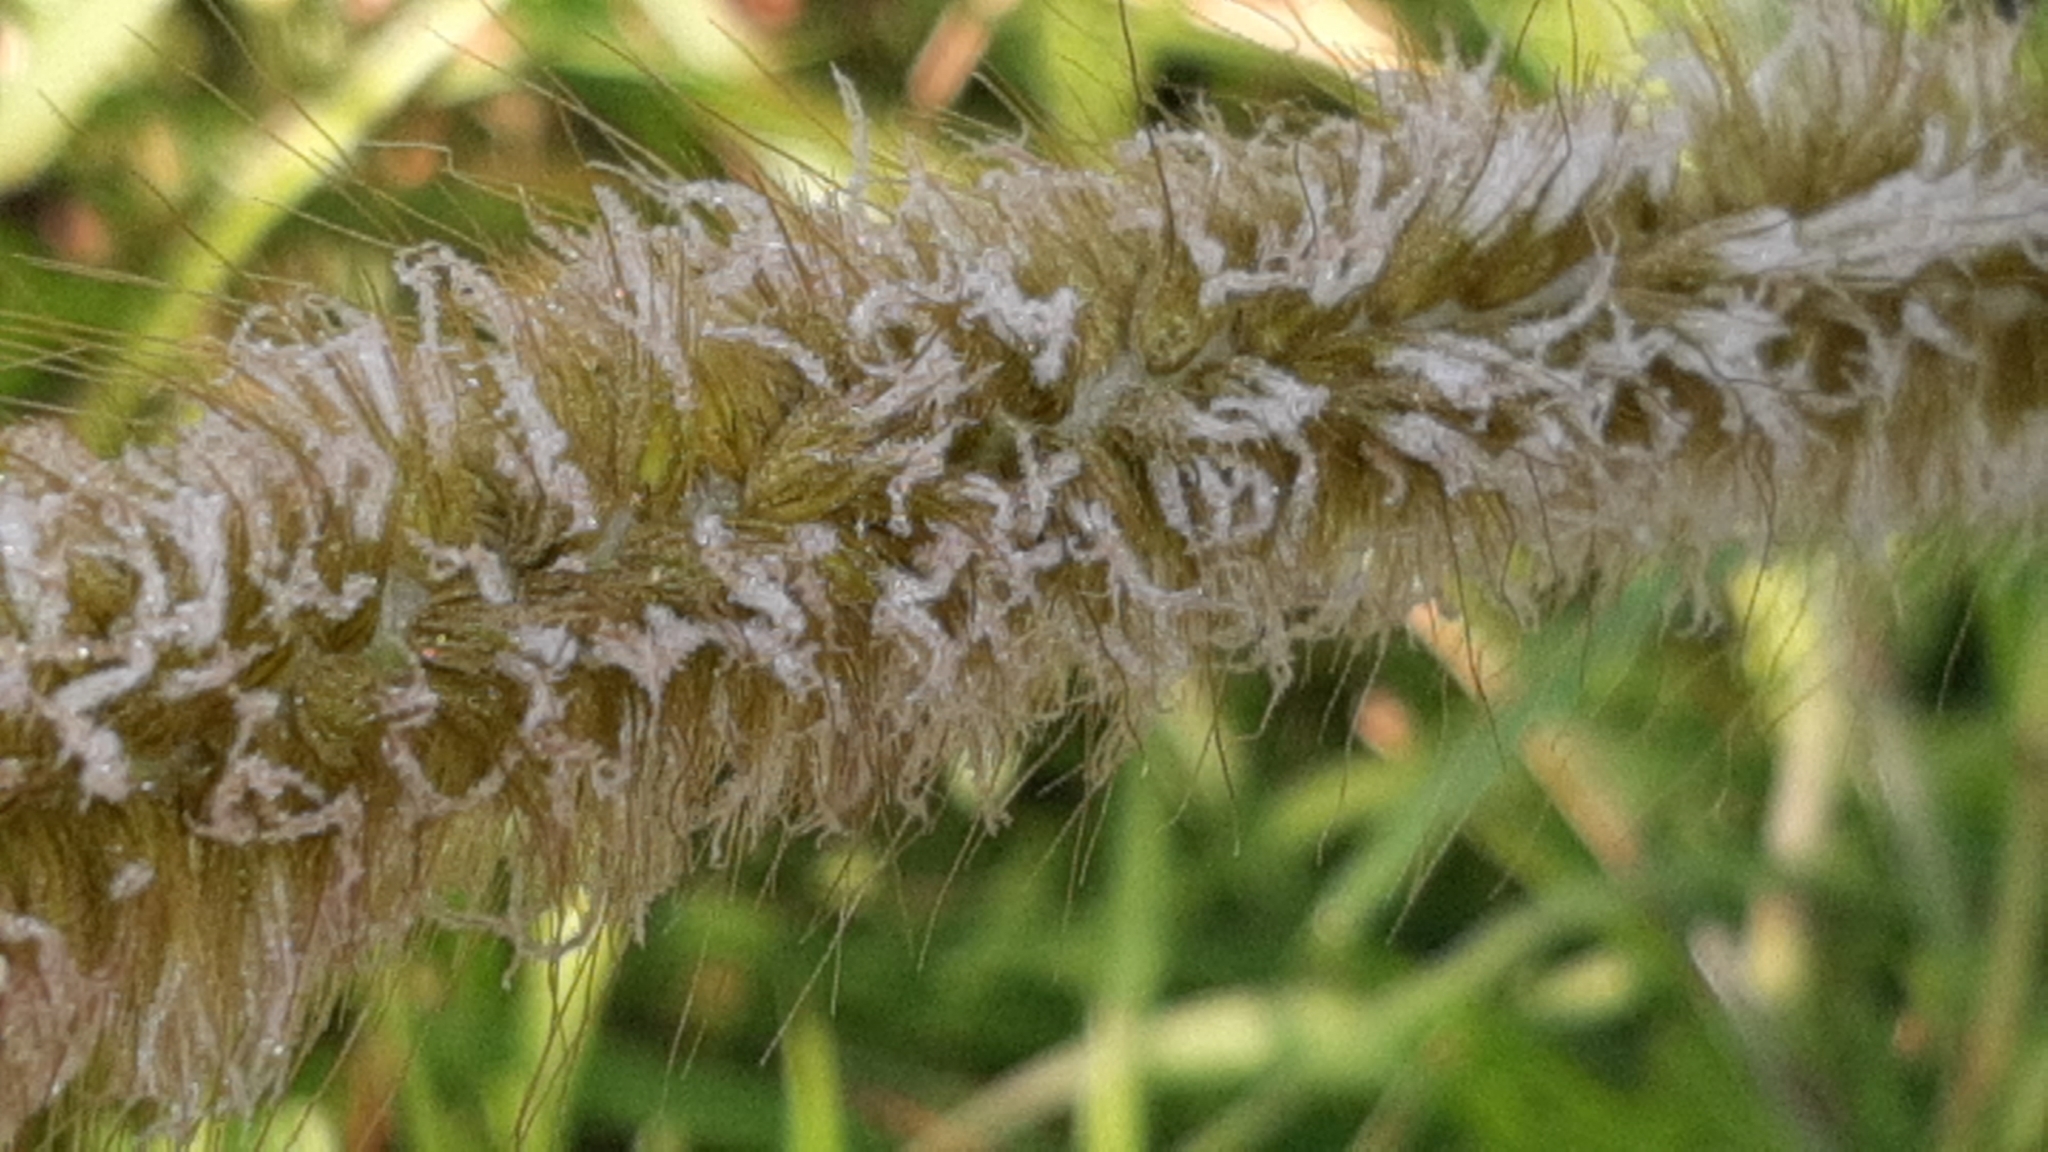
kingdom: Plantae
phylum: Tracheophyta
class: Liliopsida
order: Poales
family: Poaceae
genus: Cenchrus
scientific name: Cenchrus purpureus
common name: Elephant grass
